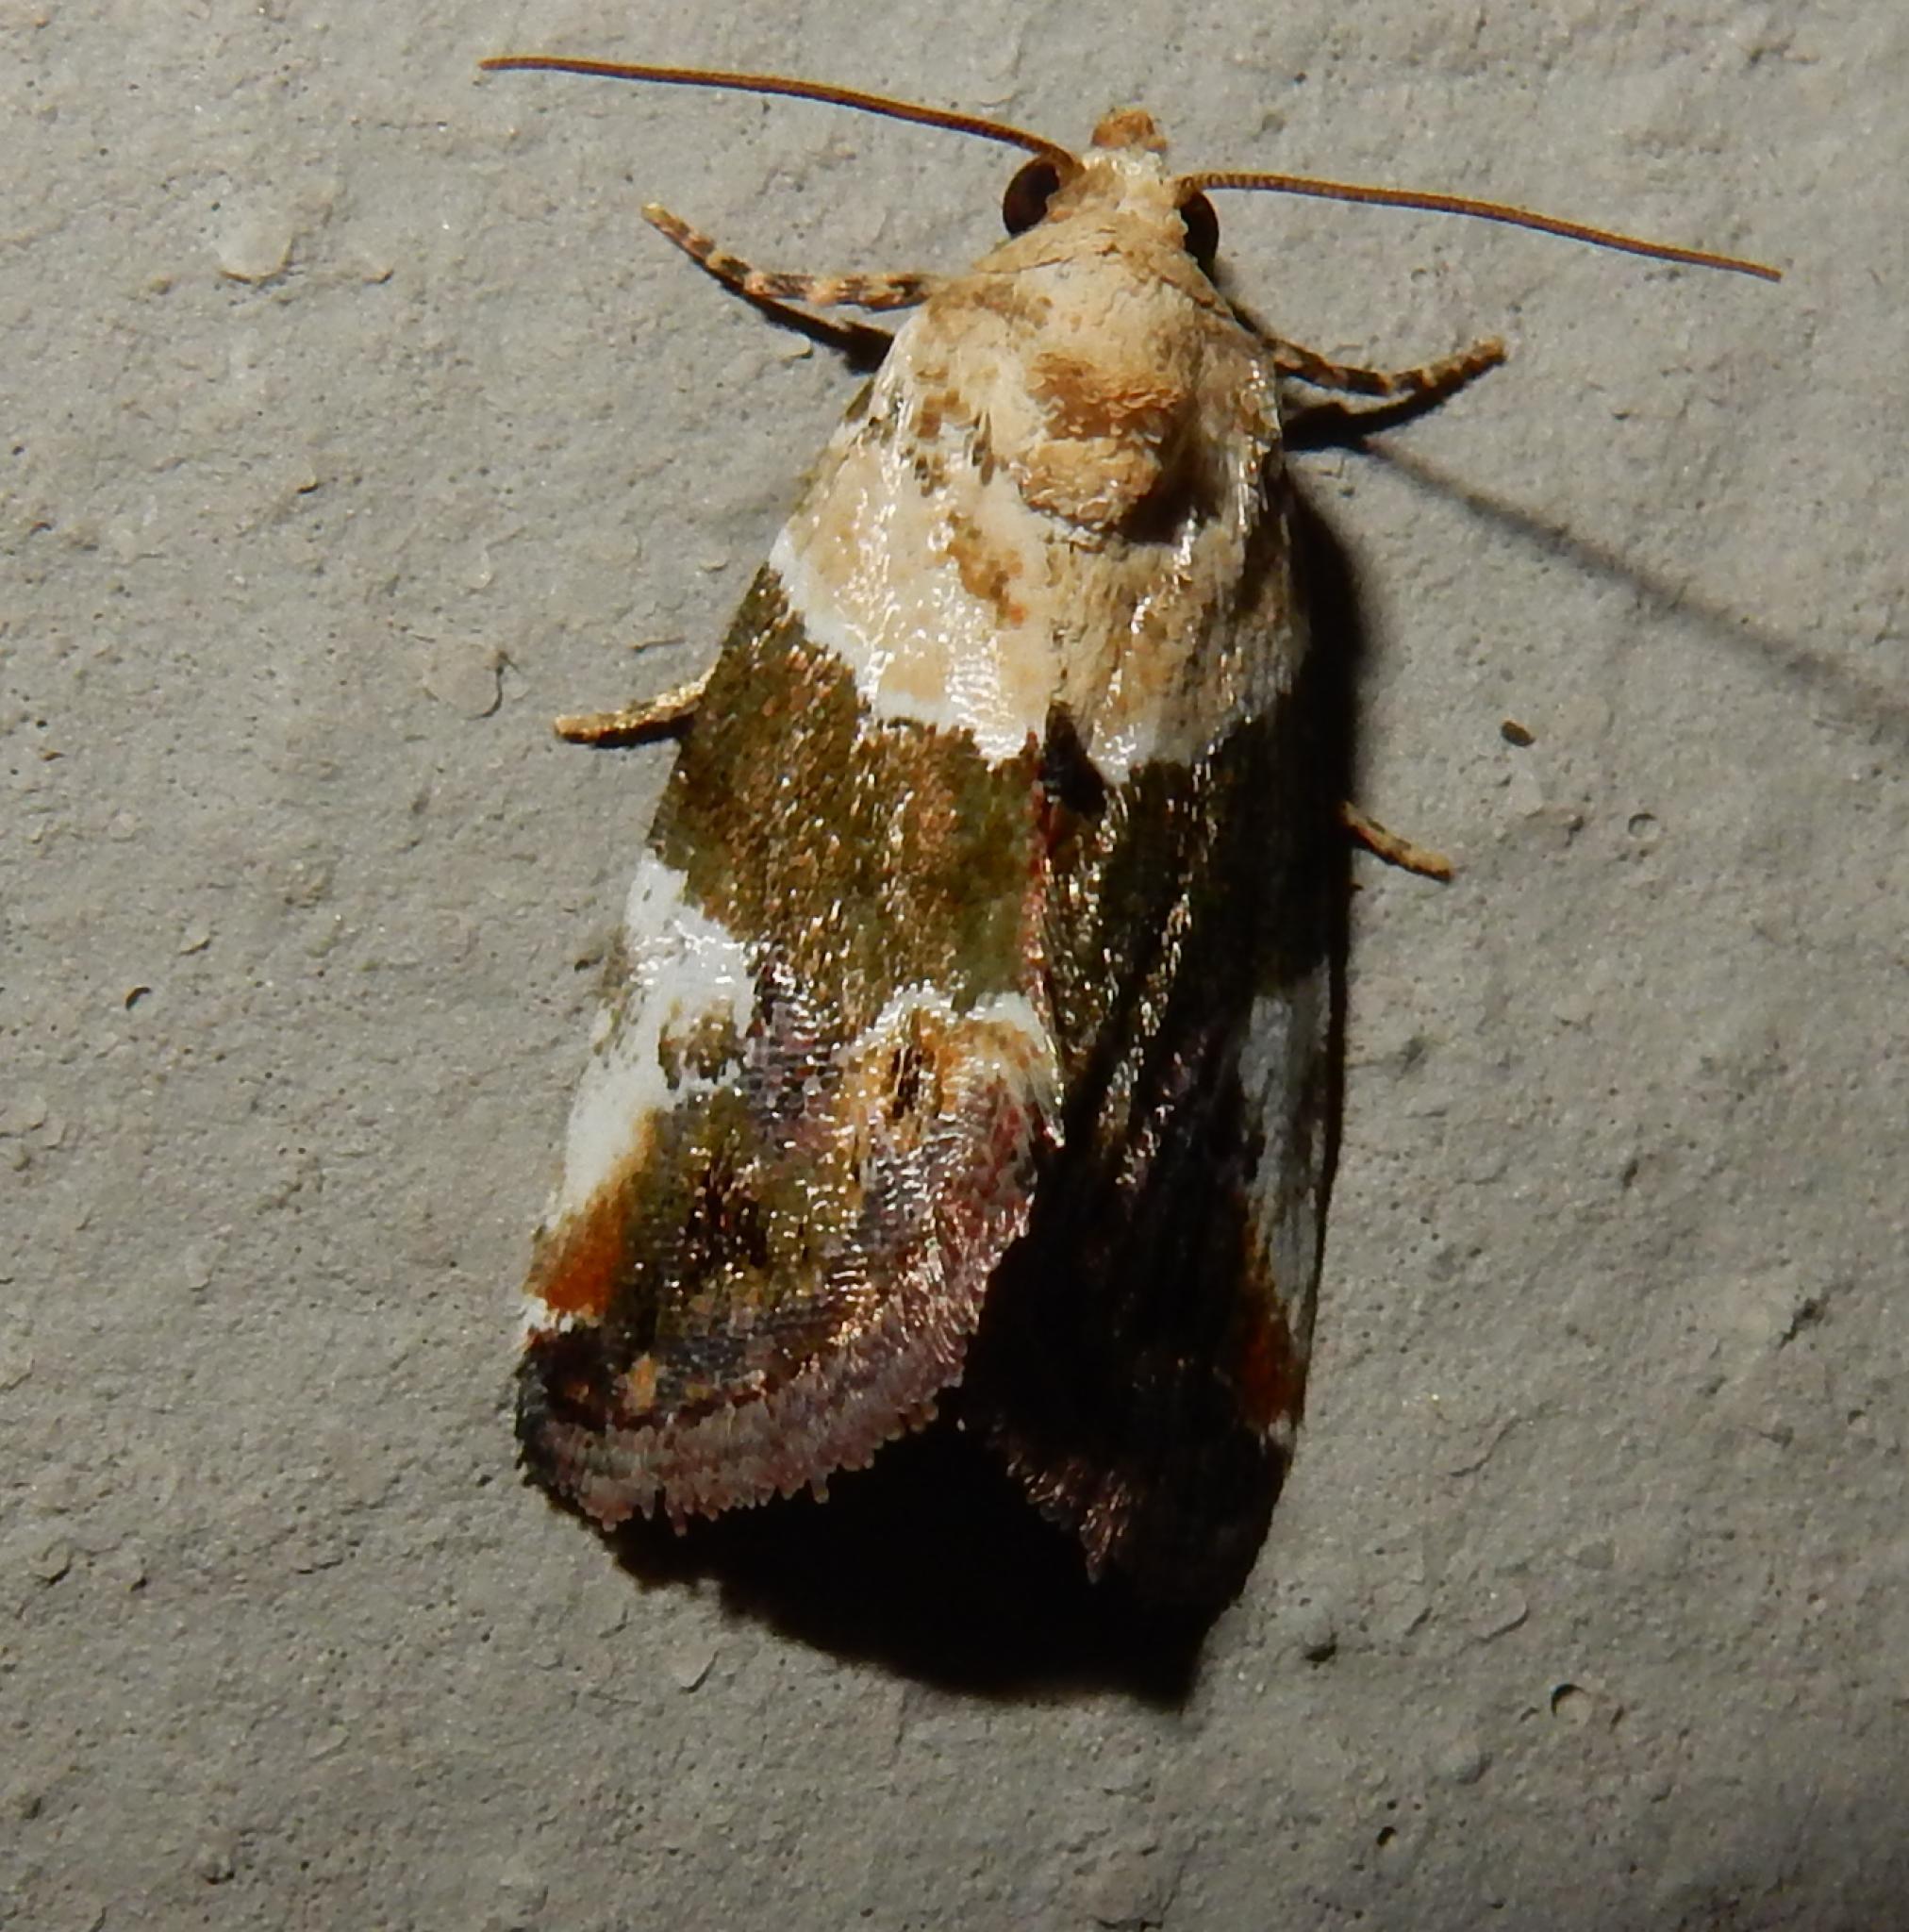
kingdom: Animalia
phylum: Arthropoda
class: Insecta
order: Lepidoptera
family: Noctuidae
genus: Hypercodia
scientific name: Hypercodia wheeleri
